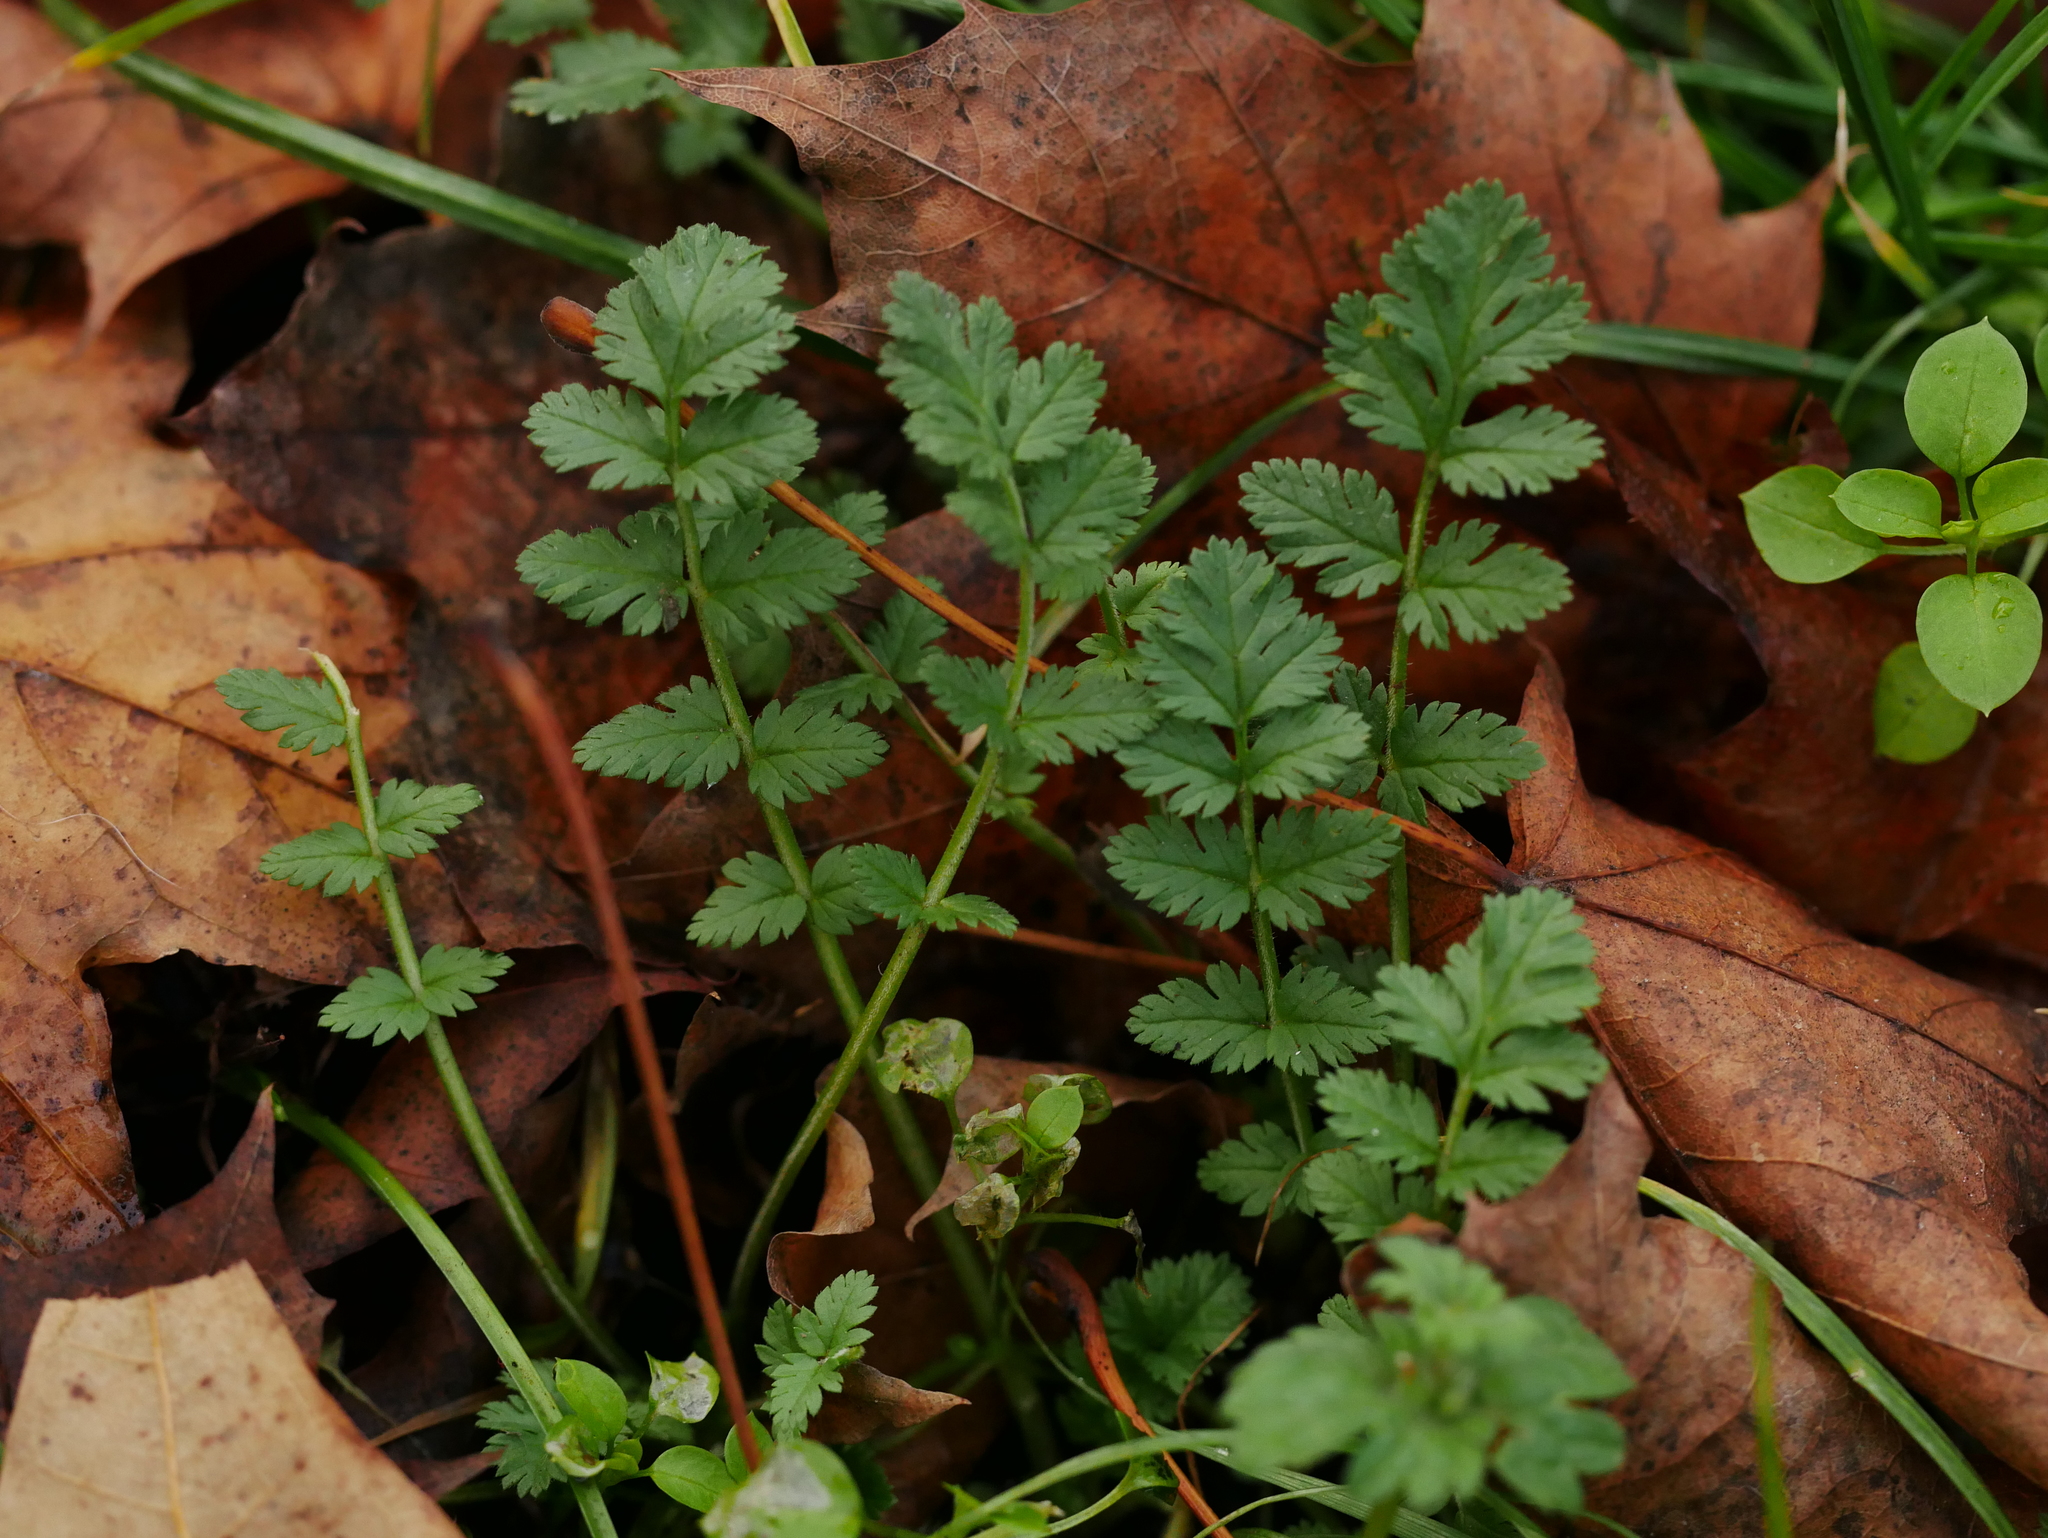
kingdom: Plantae
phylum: Tracheophyta
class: Magnoliopsida
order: Geraniales
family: Geraniaceae
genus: Erodium
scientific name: Erodium cicutarium
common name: Common stork's-bill
